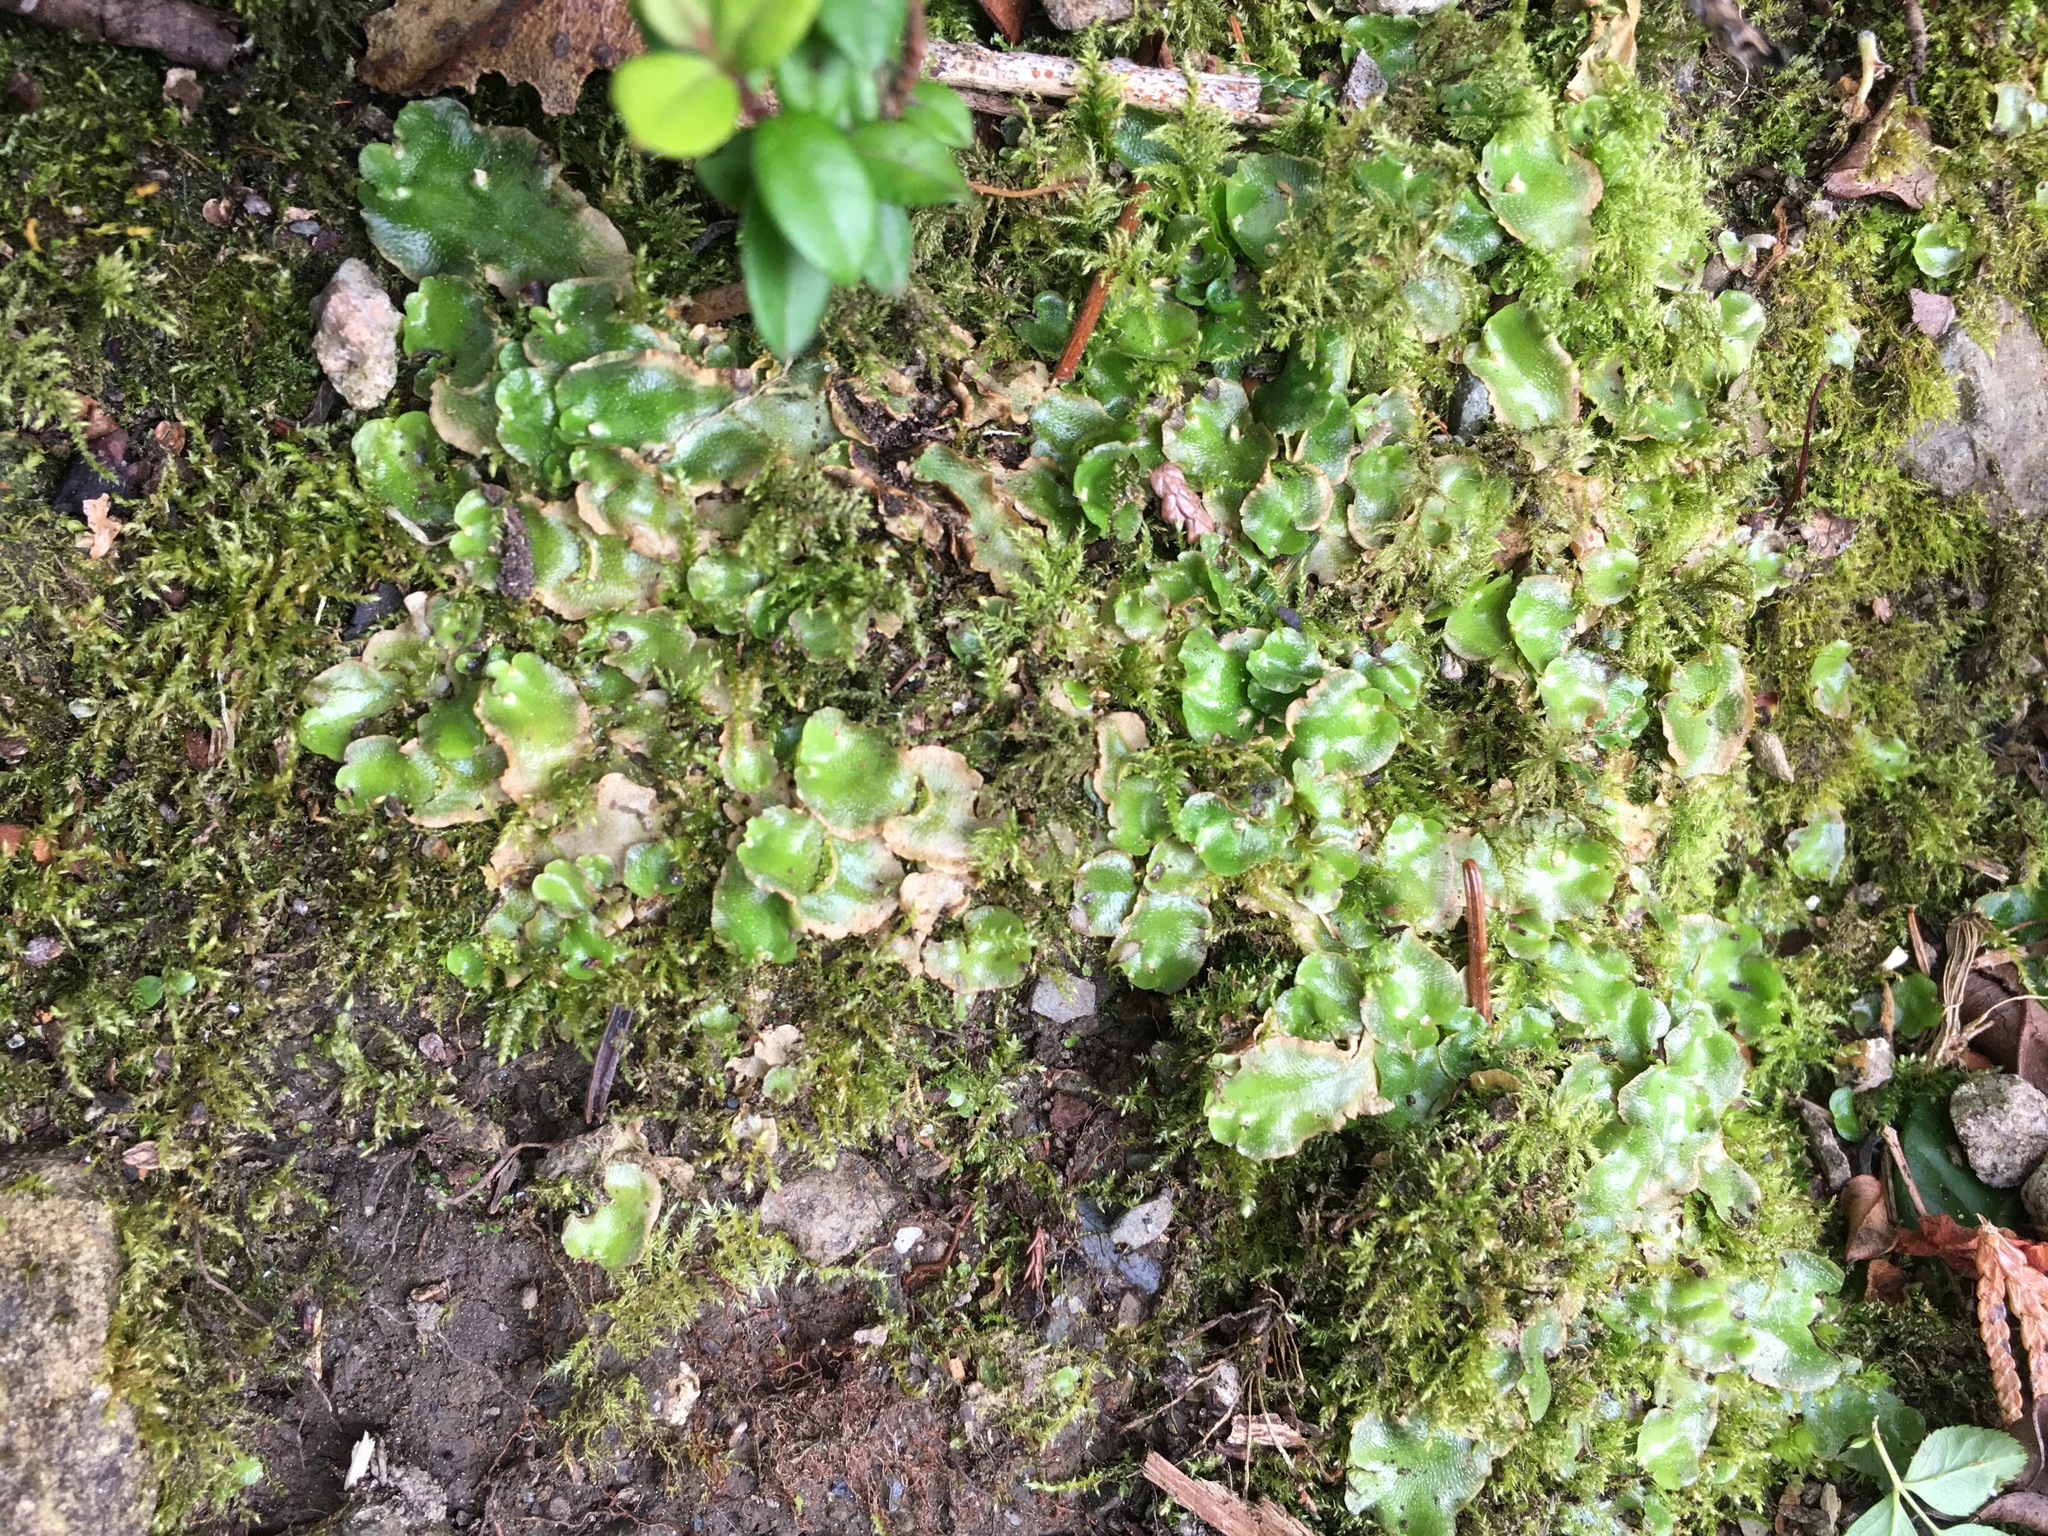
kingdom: Plantae
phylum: Marchantiophyta
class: Marchantiopsida
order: Lunulariales
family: Lunulariaceae
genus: Lunularia
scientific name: Lunularia cruciata
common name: Crescent-cup liverwort
